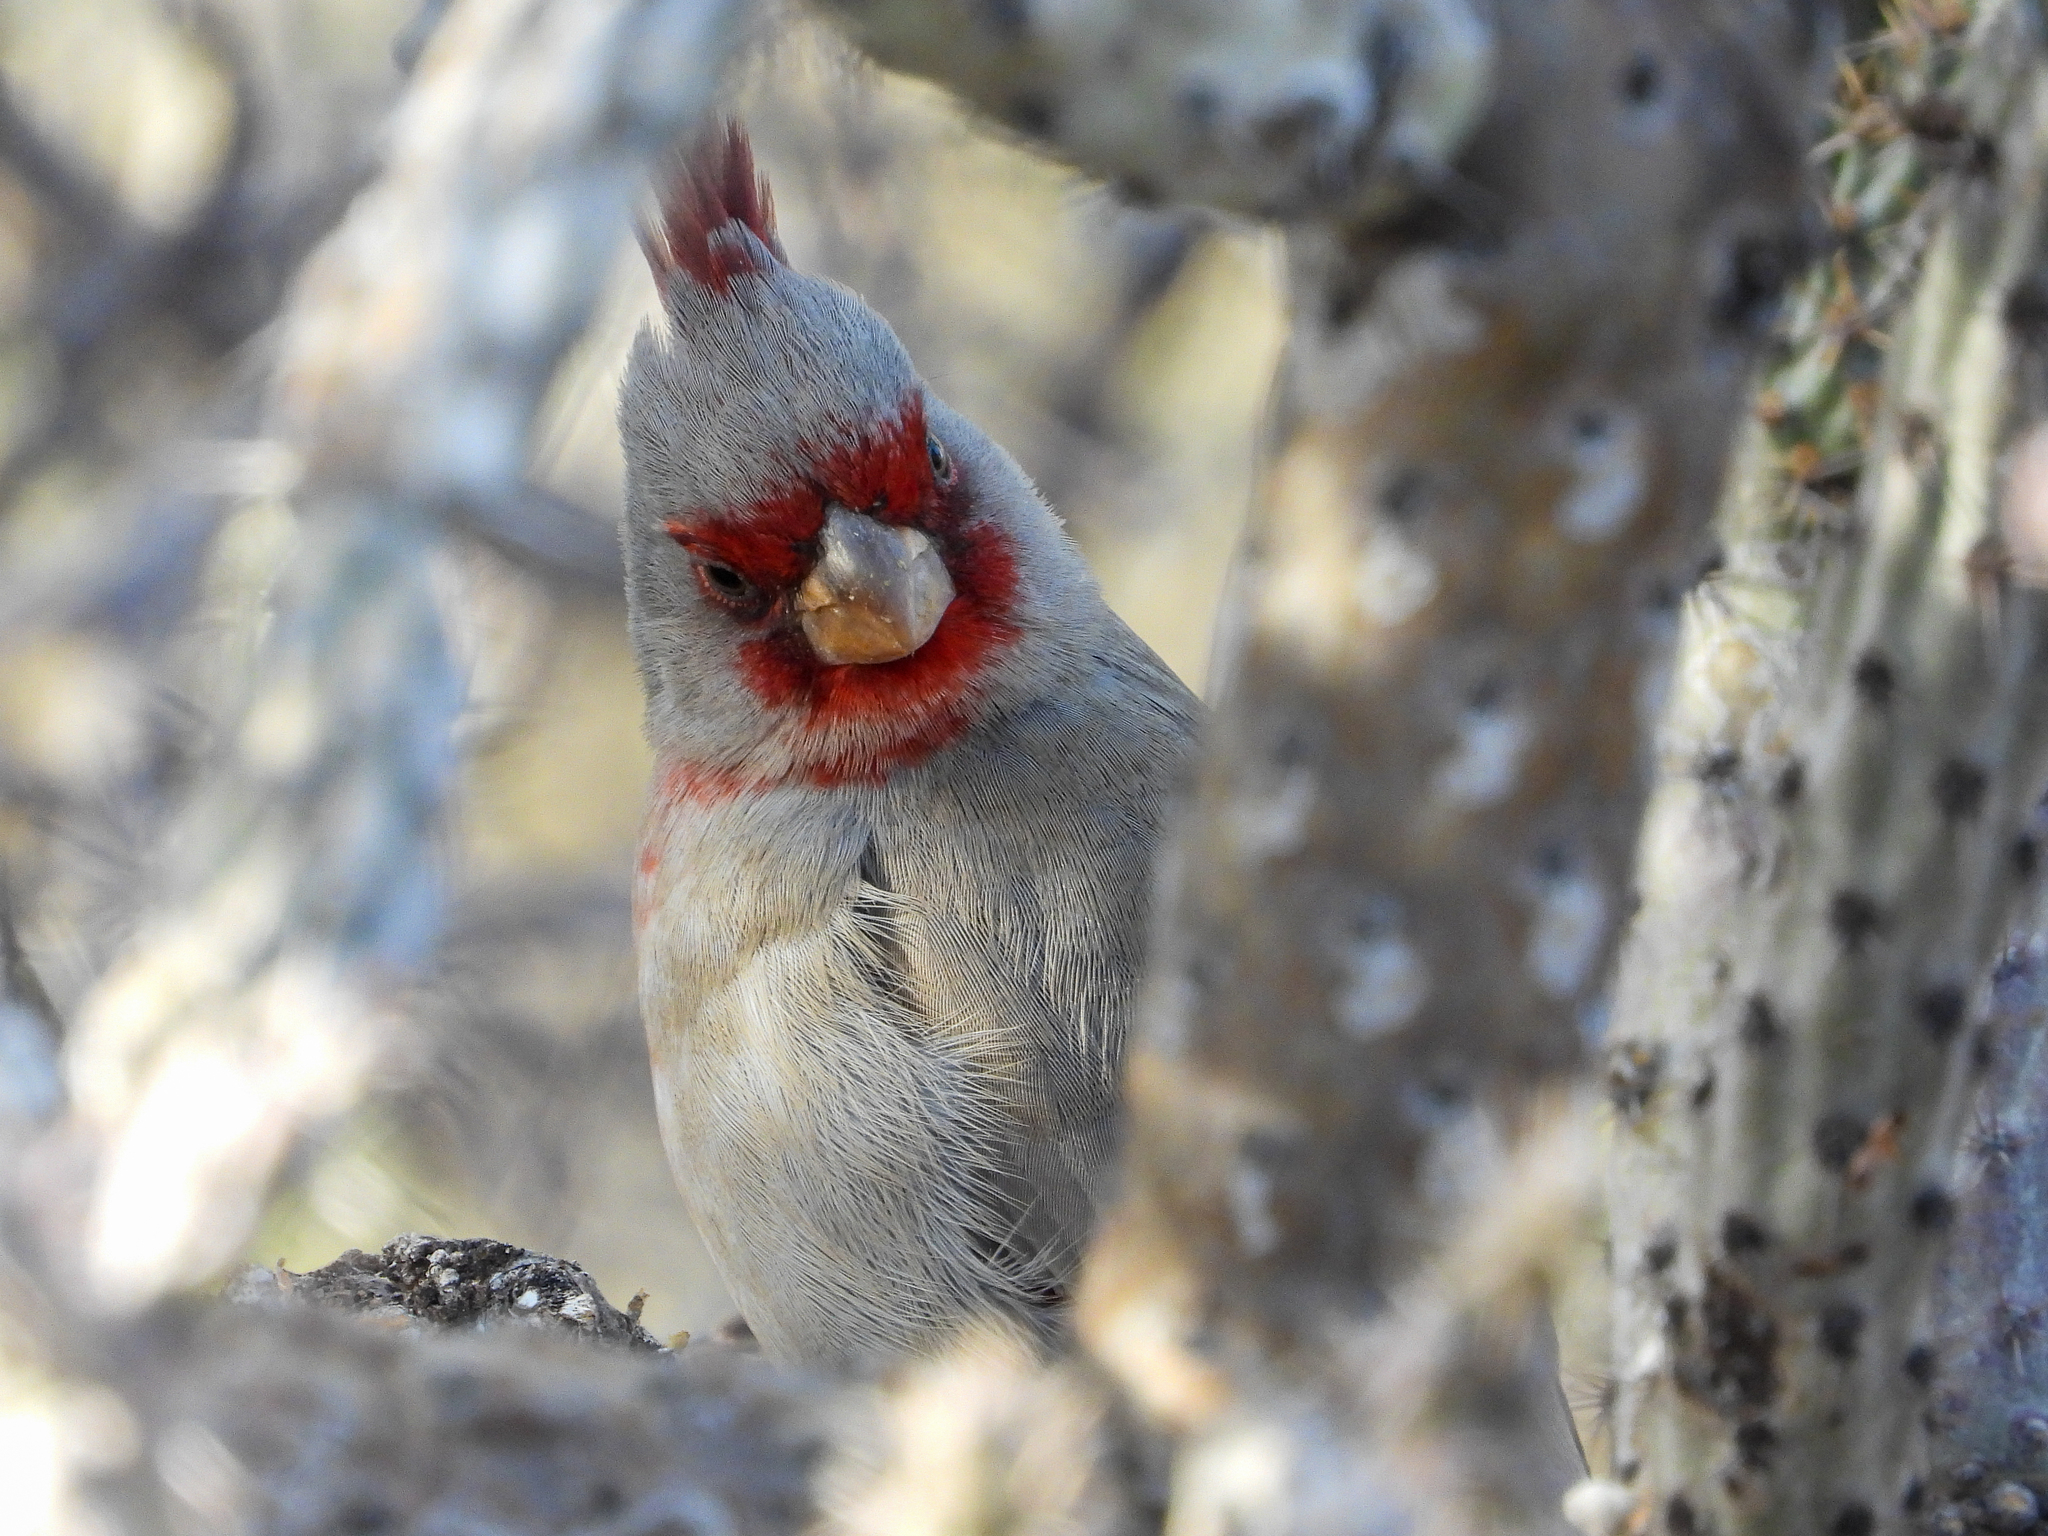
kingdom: Animalia
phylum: Chordata
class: Aves
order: Passeriformes
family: Cardinalidae
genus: Cardinalis
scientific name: Cardinalis sinuatus
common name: Pyrrhuloxia
